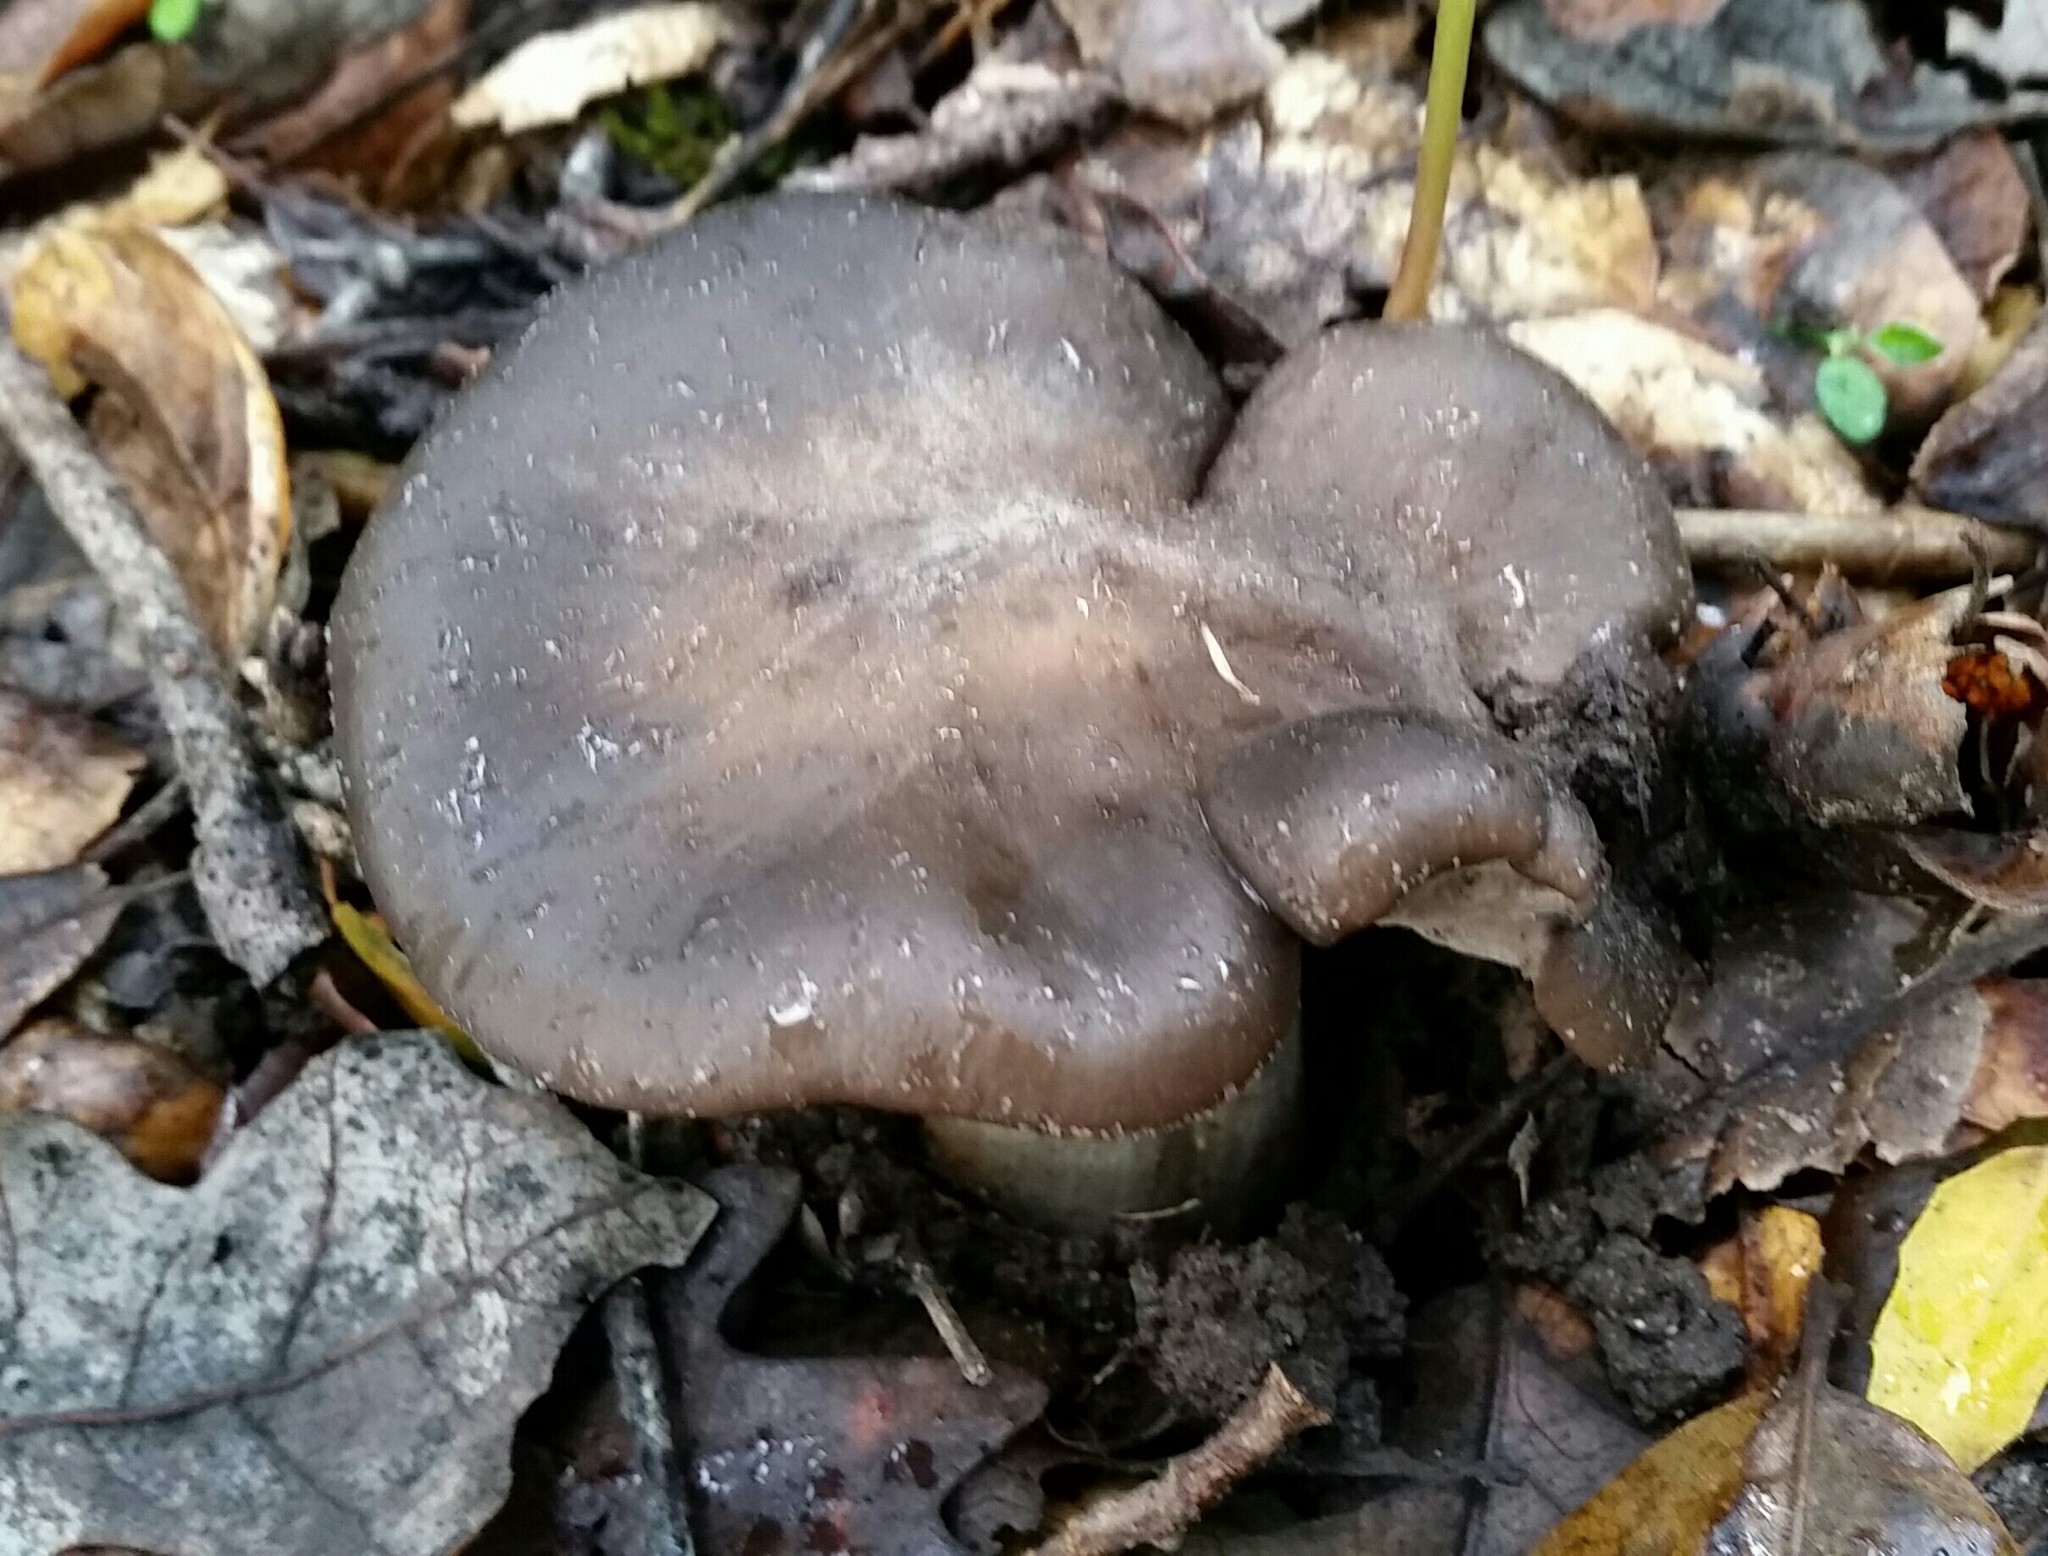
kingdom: Fungi
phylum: Basidiomycota
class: Agaricomycetes
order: Agaricales
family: Entolomataceae
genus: Entoloma
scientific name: Entoloma ferruginans
